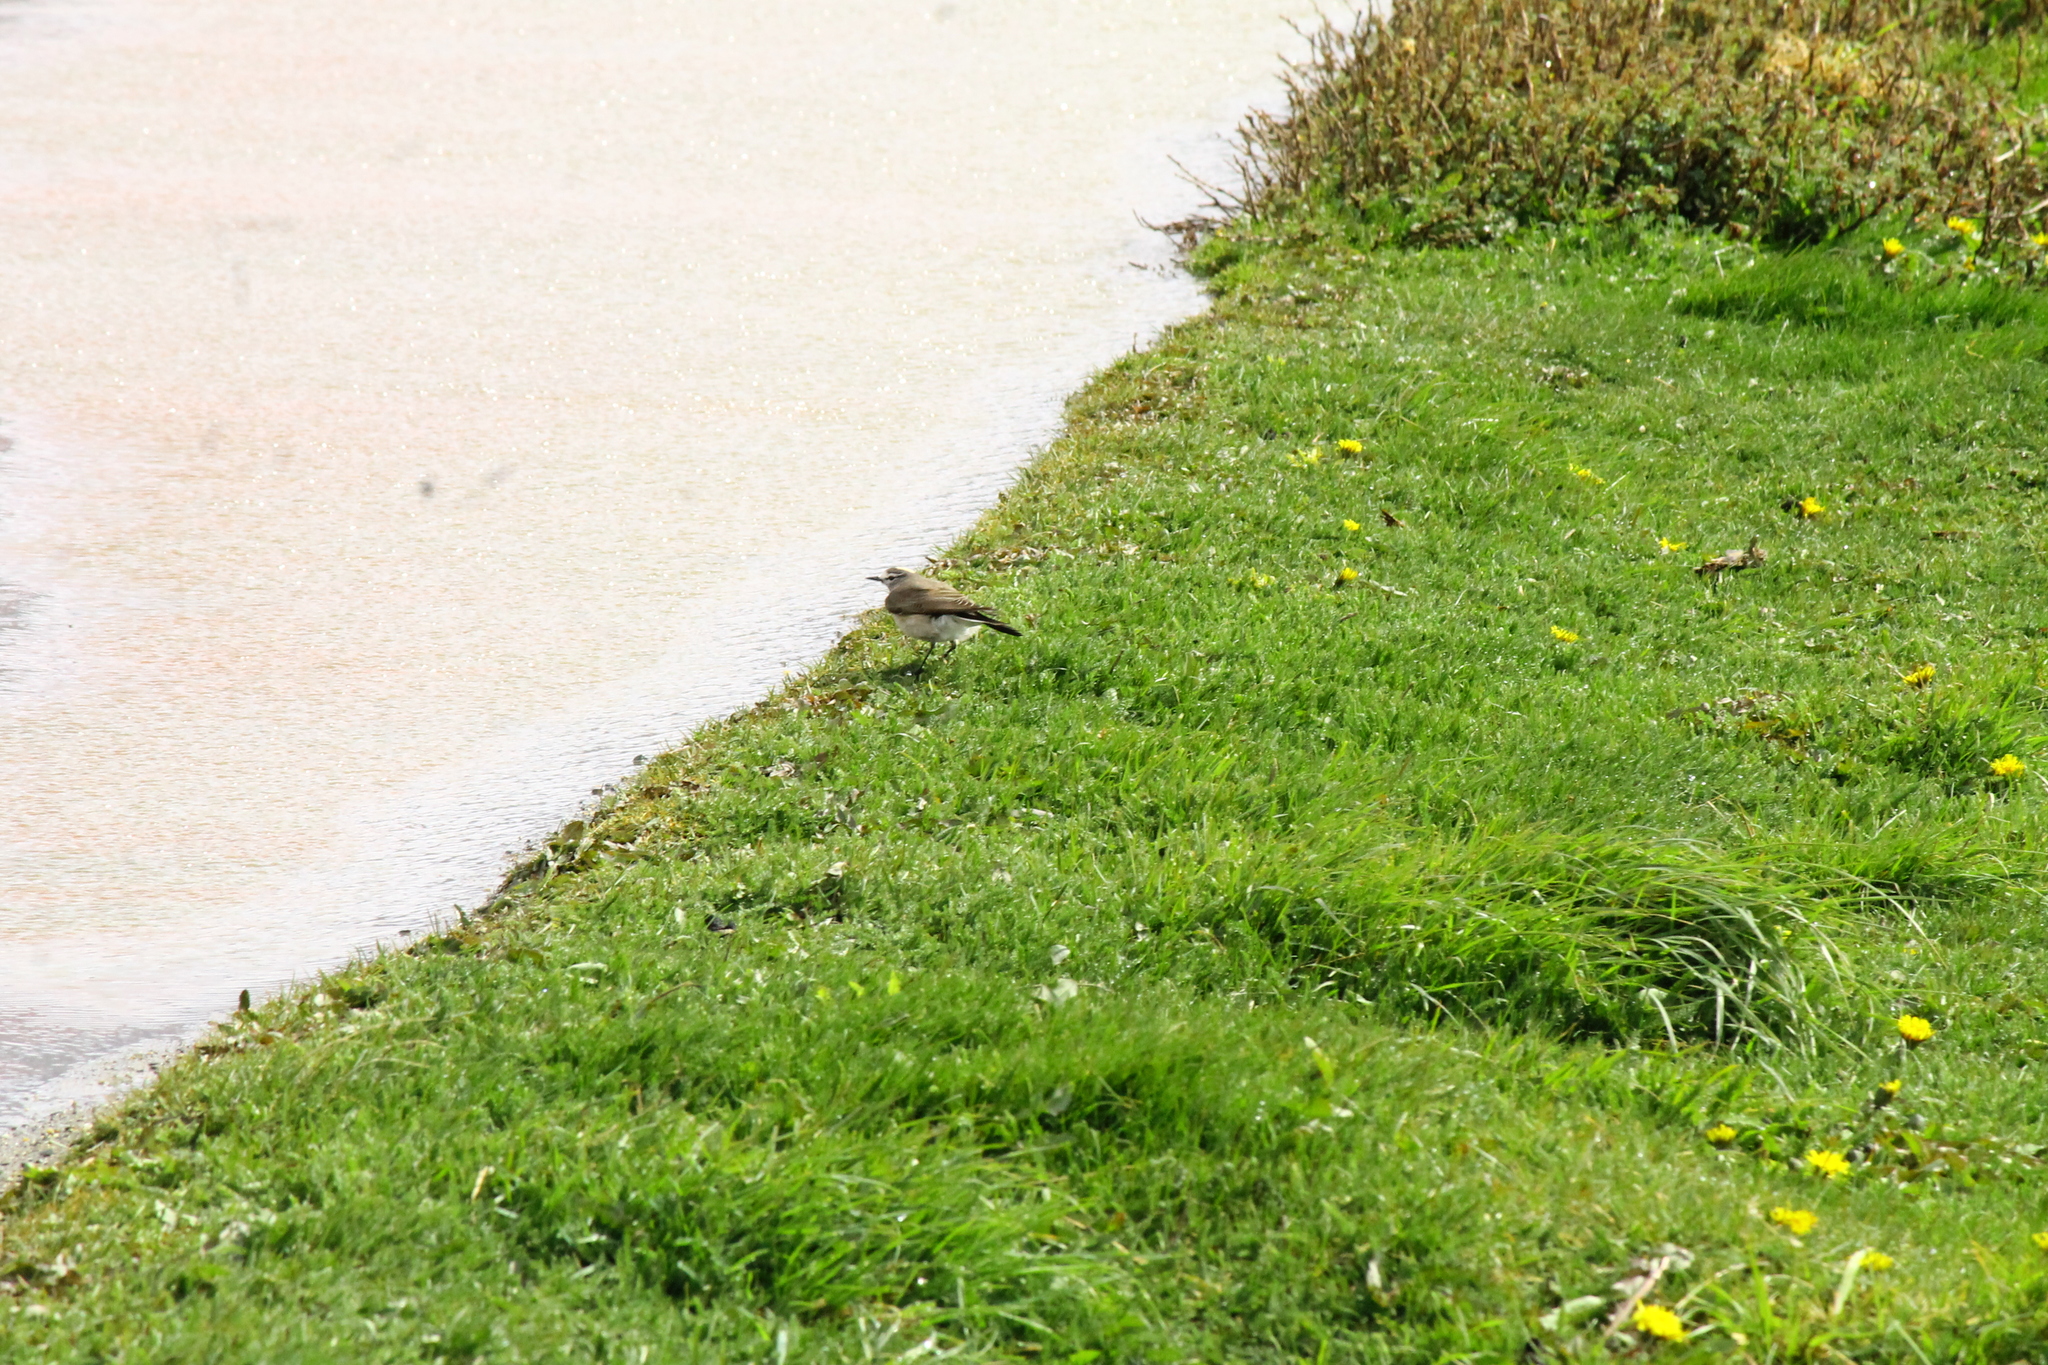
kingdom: Animalia
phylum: Chordata
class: Aves
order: Passeriformes
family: Tyrannidae
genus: Muscisaxicola
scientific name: Muscisaxicola flavinucha
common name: Ochre-naped ground tyrant
